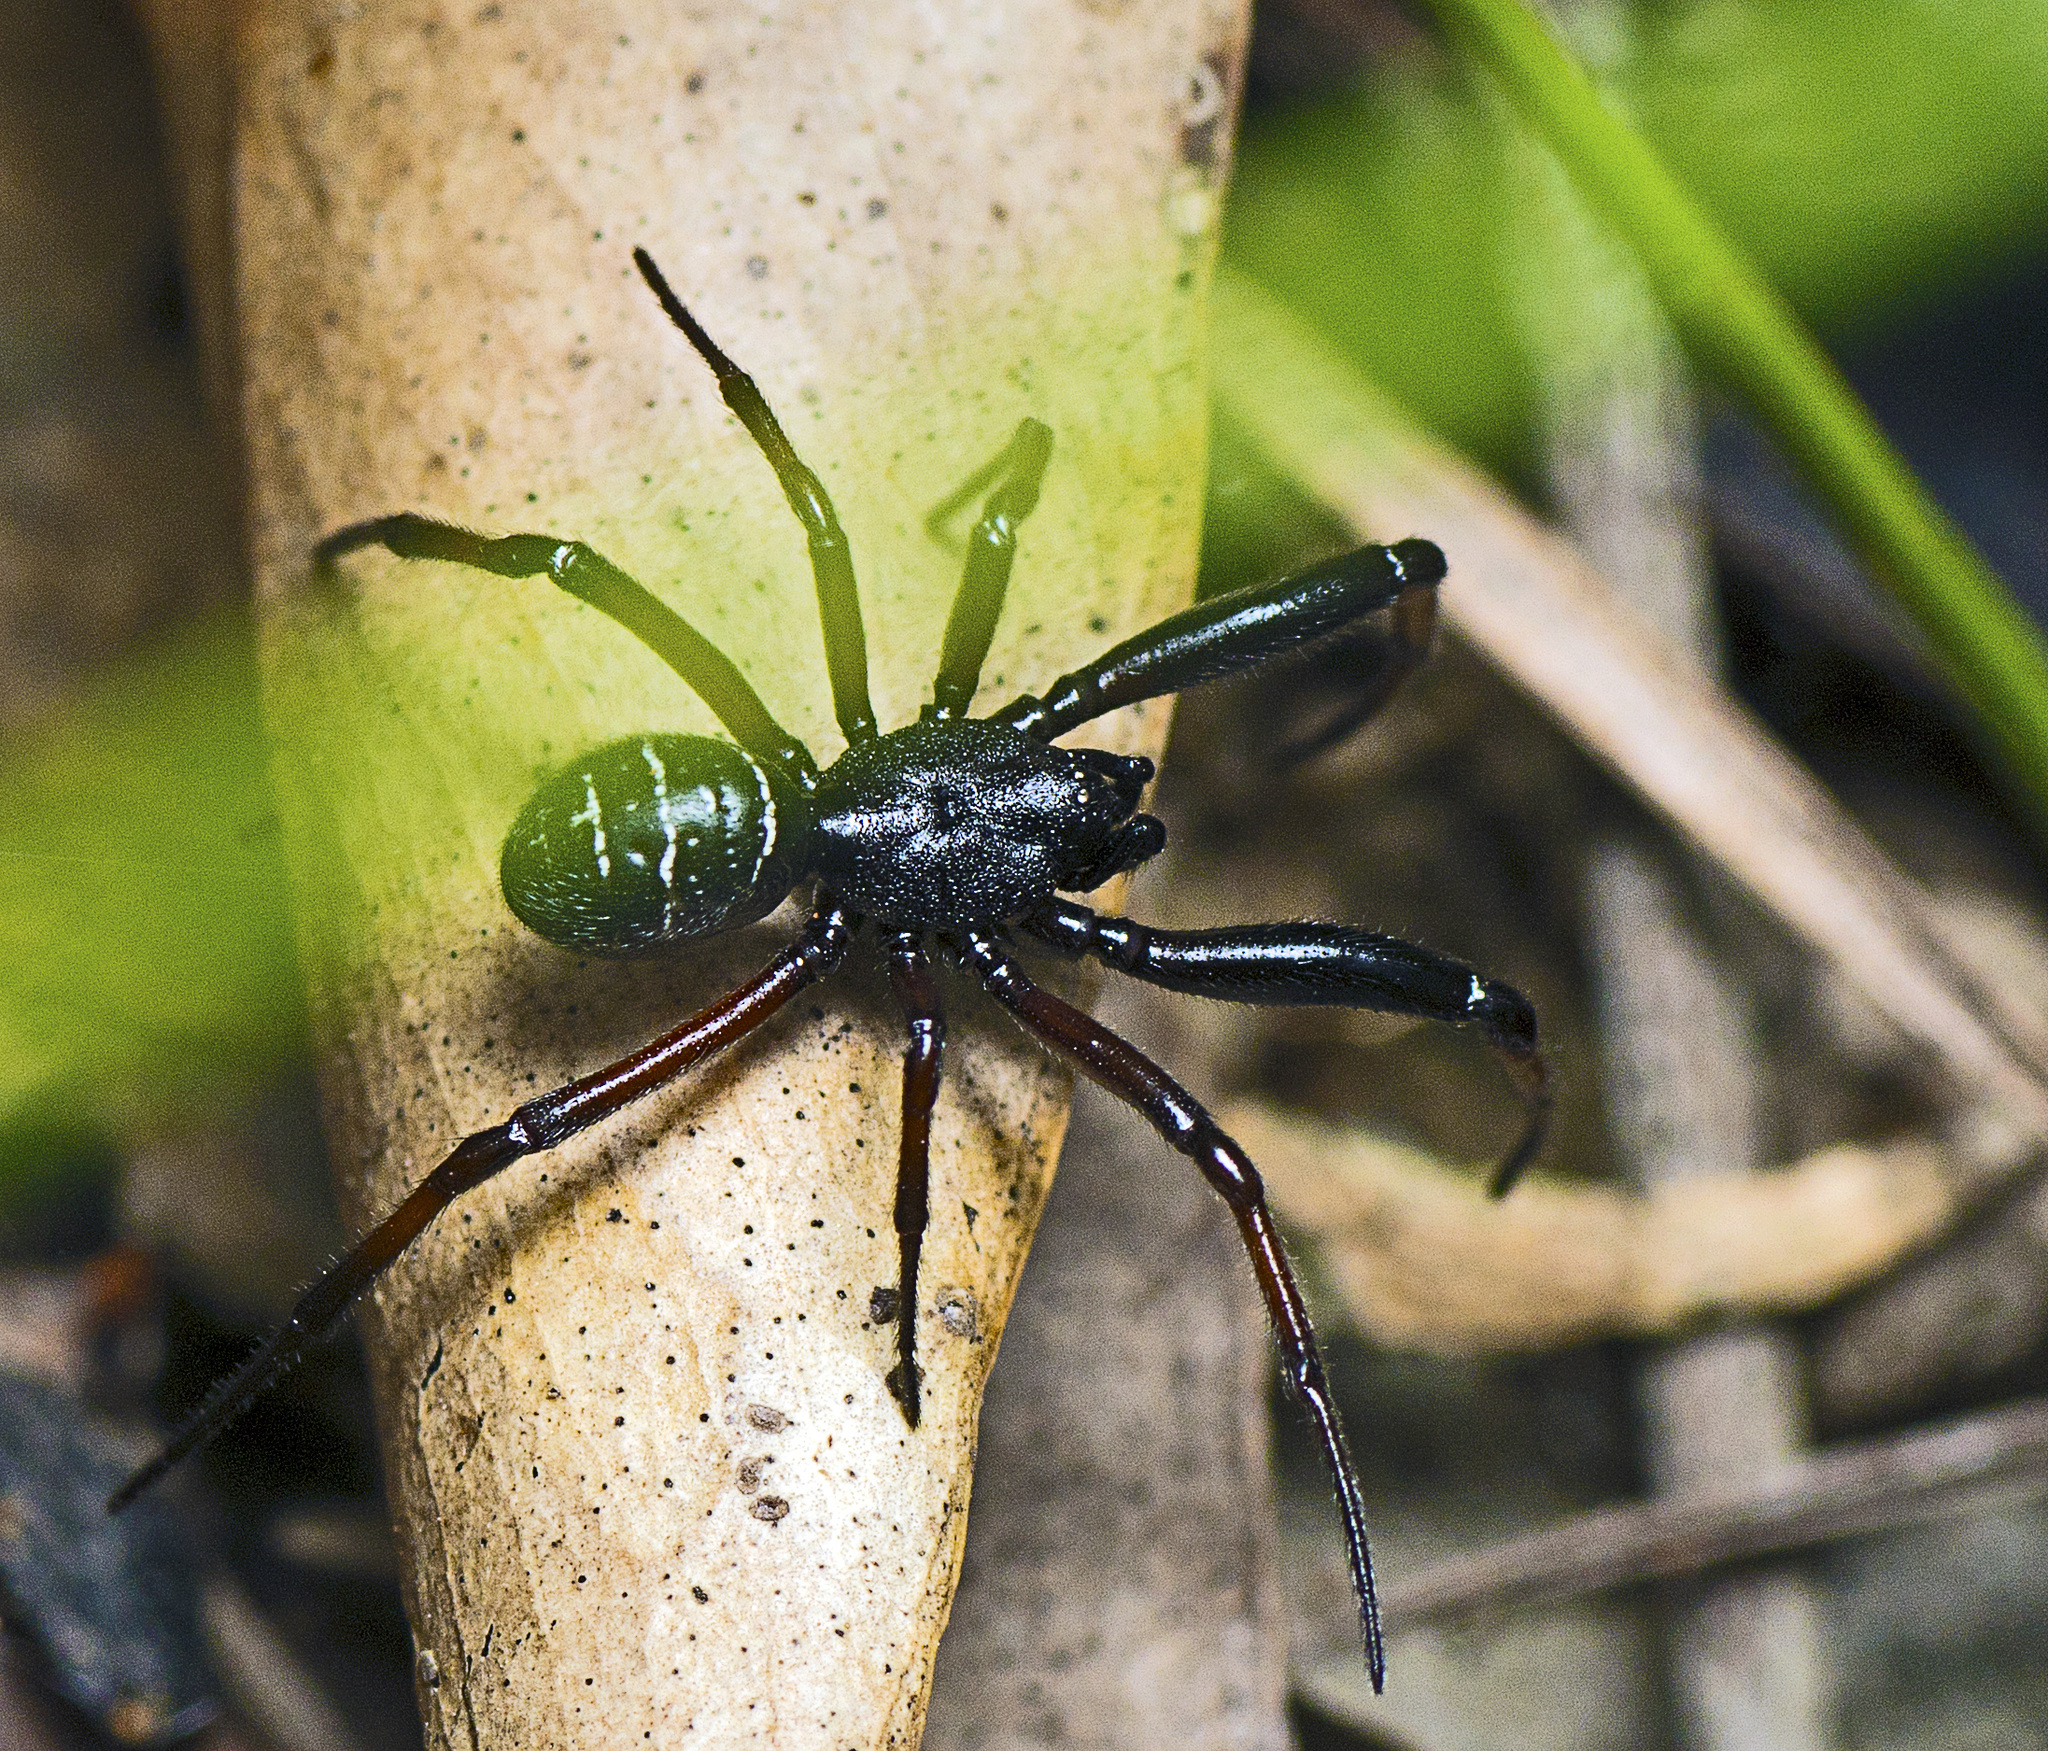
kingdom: Animalia
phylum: Arthropoda
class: Arachnida
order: Araneae
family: Theridiidae
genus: Steatoda
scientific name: Steatoda capensis
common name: Cobweb weaver
